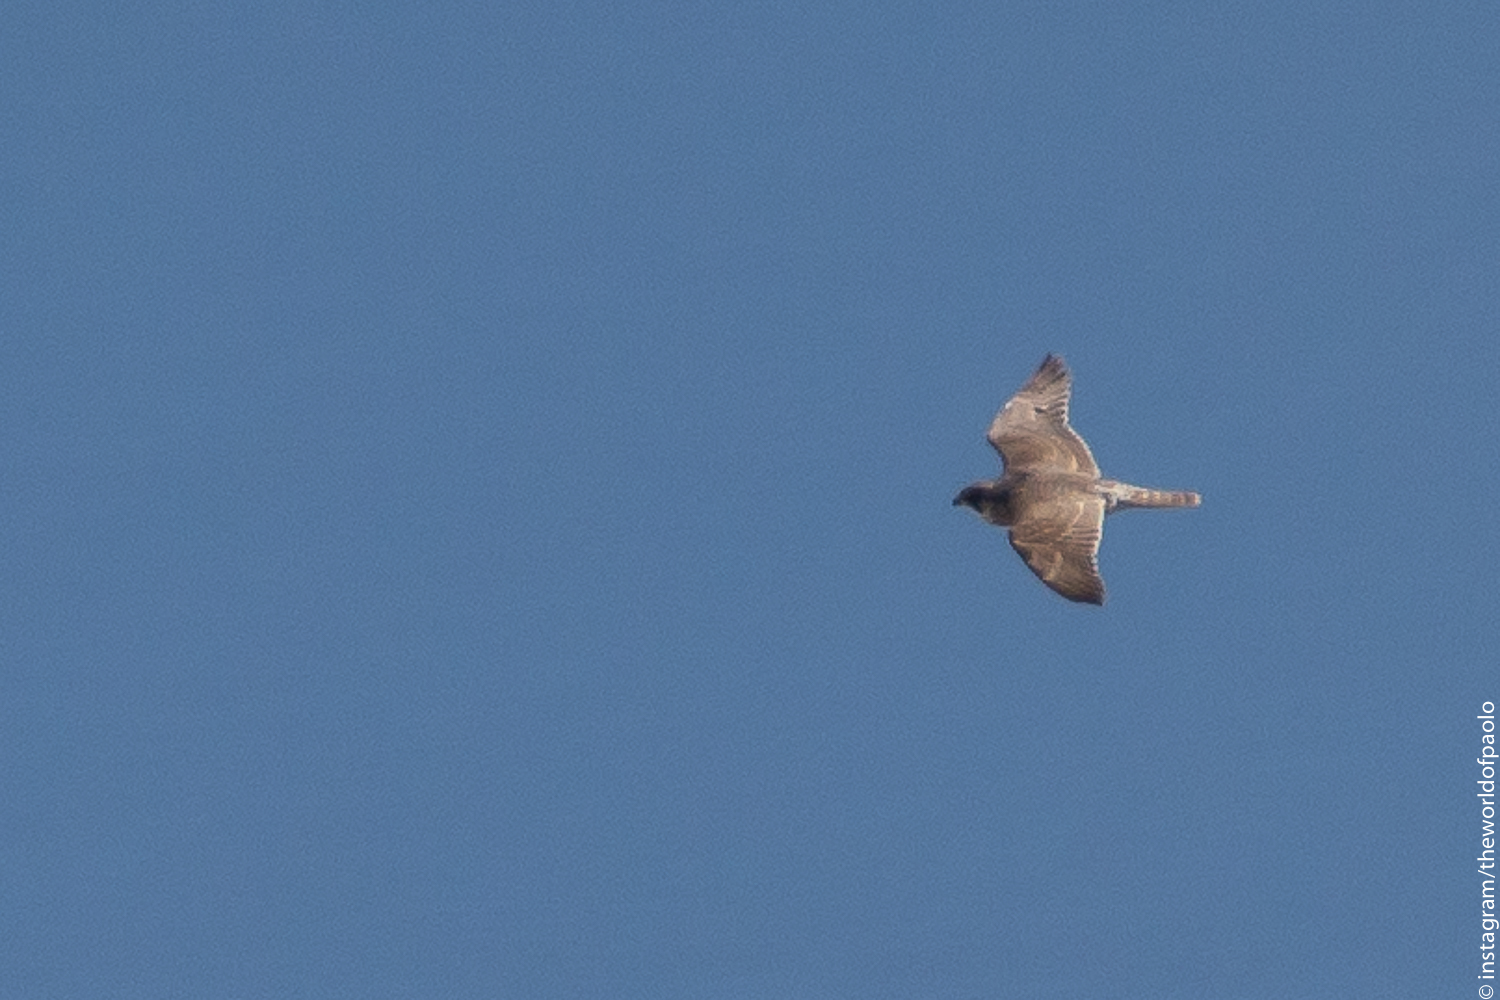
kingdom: Animalia
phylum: Chordata
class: Aves
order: Falconiformes
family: Falconidae
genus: Falco
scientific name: Falco peregrinus
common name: Peregrine falcon
